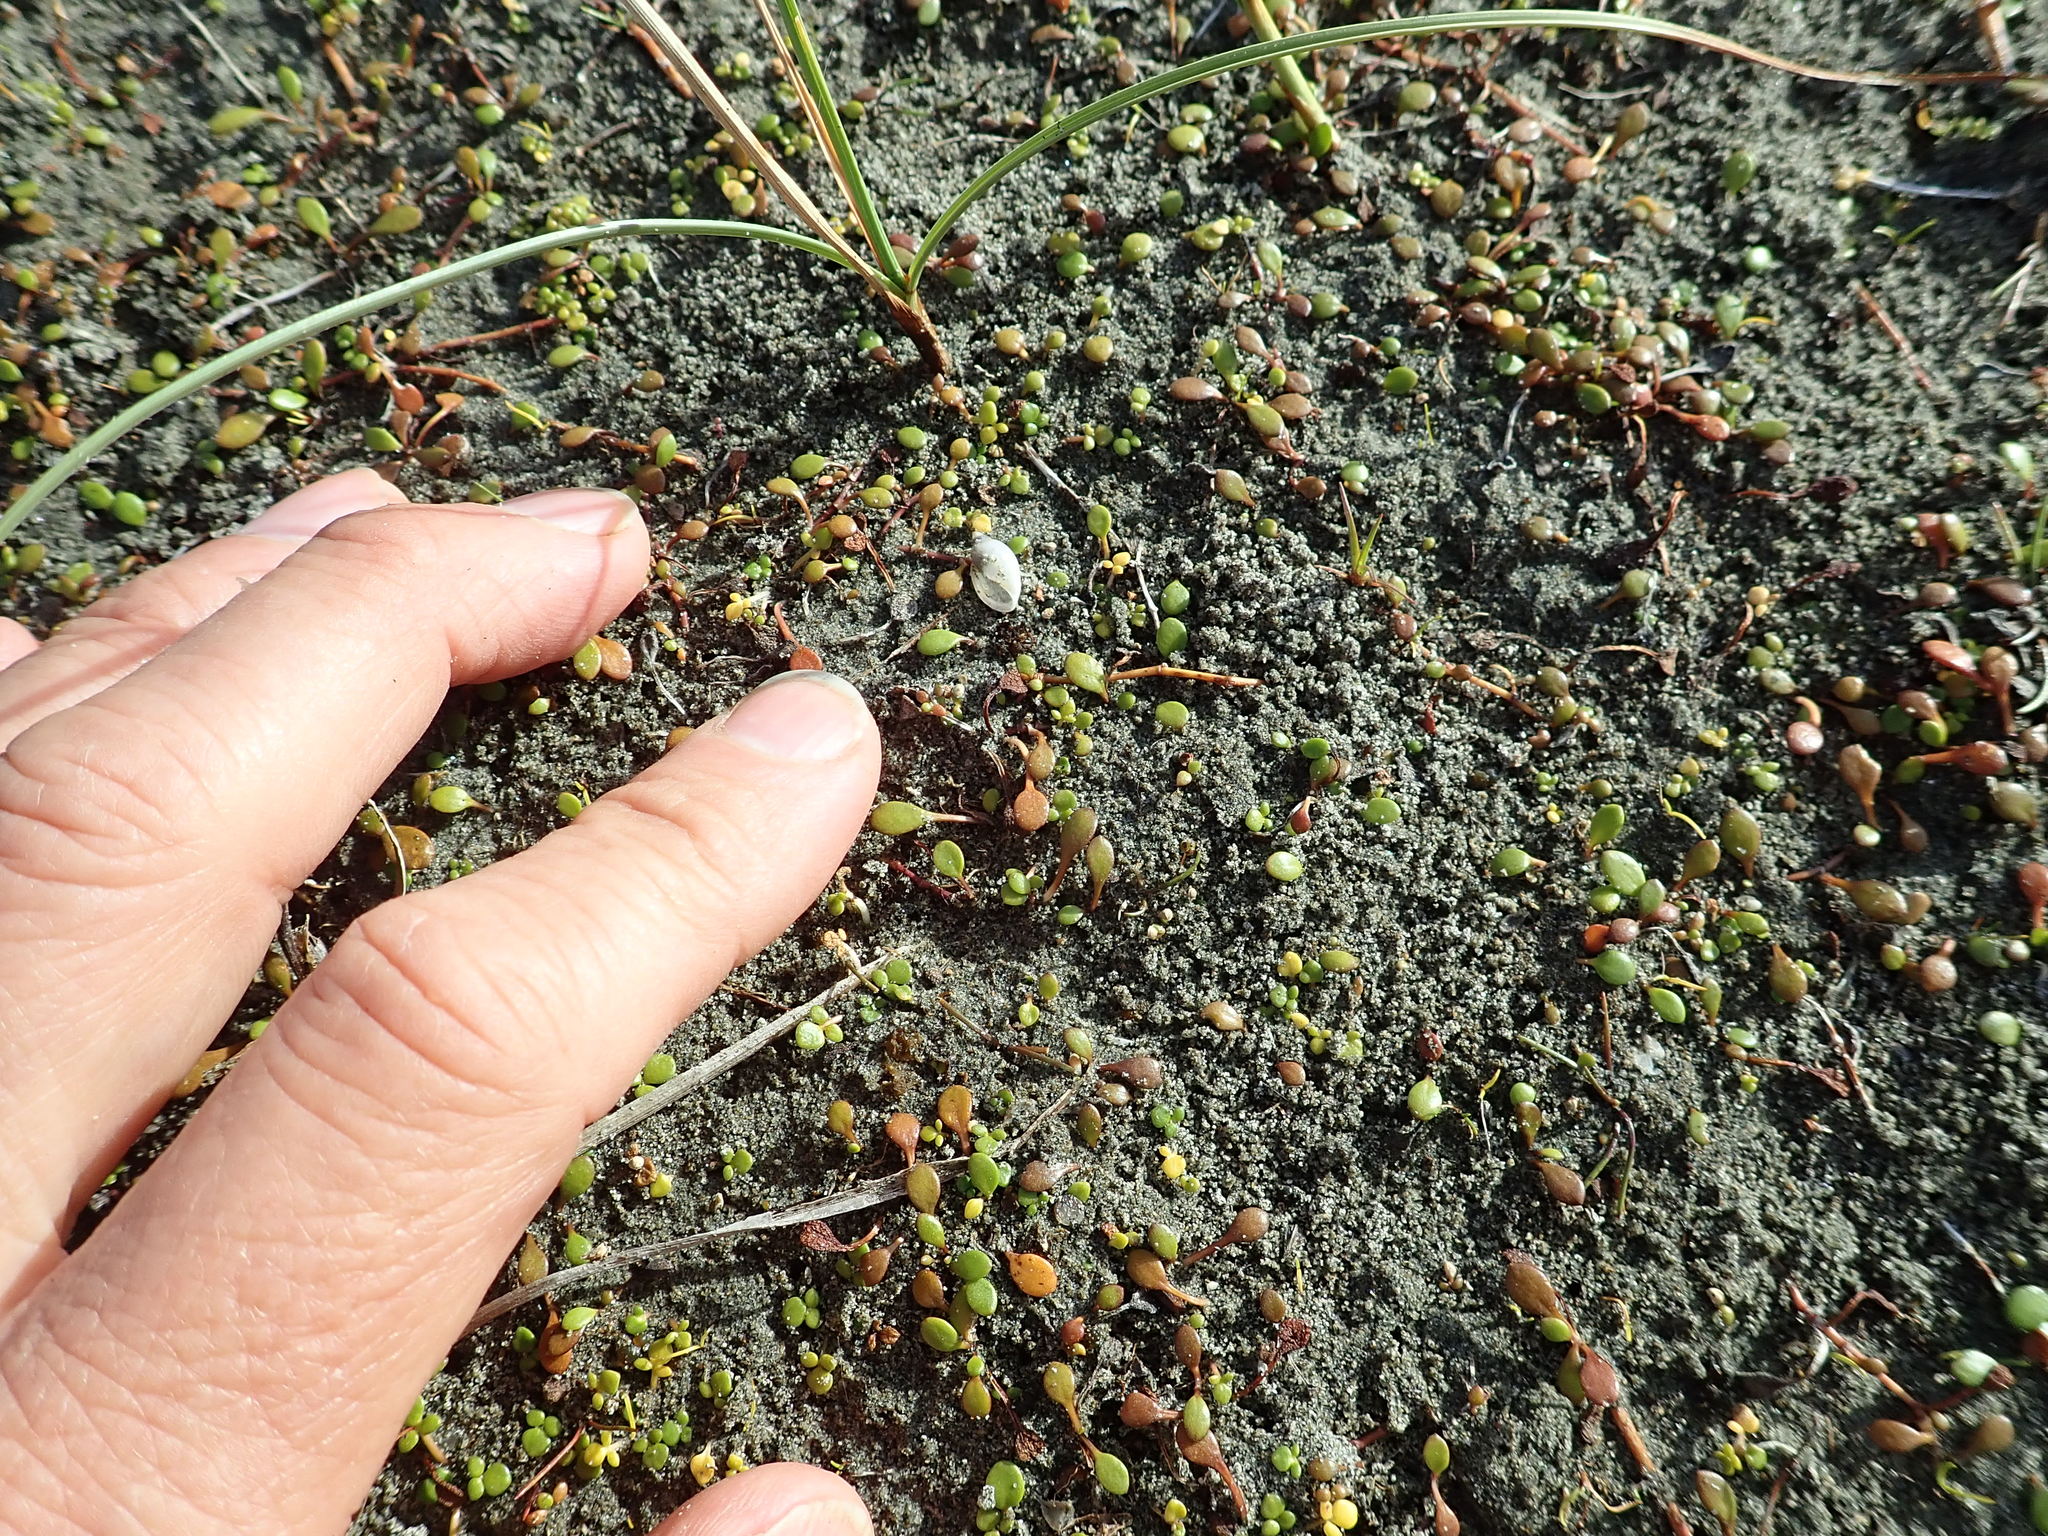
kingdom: Animalia
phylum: Mollusca
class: Gastropoda
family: Physidae
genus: Physella
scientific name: Physella acuta
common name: European physa
